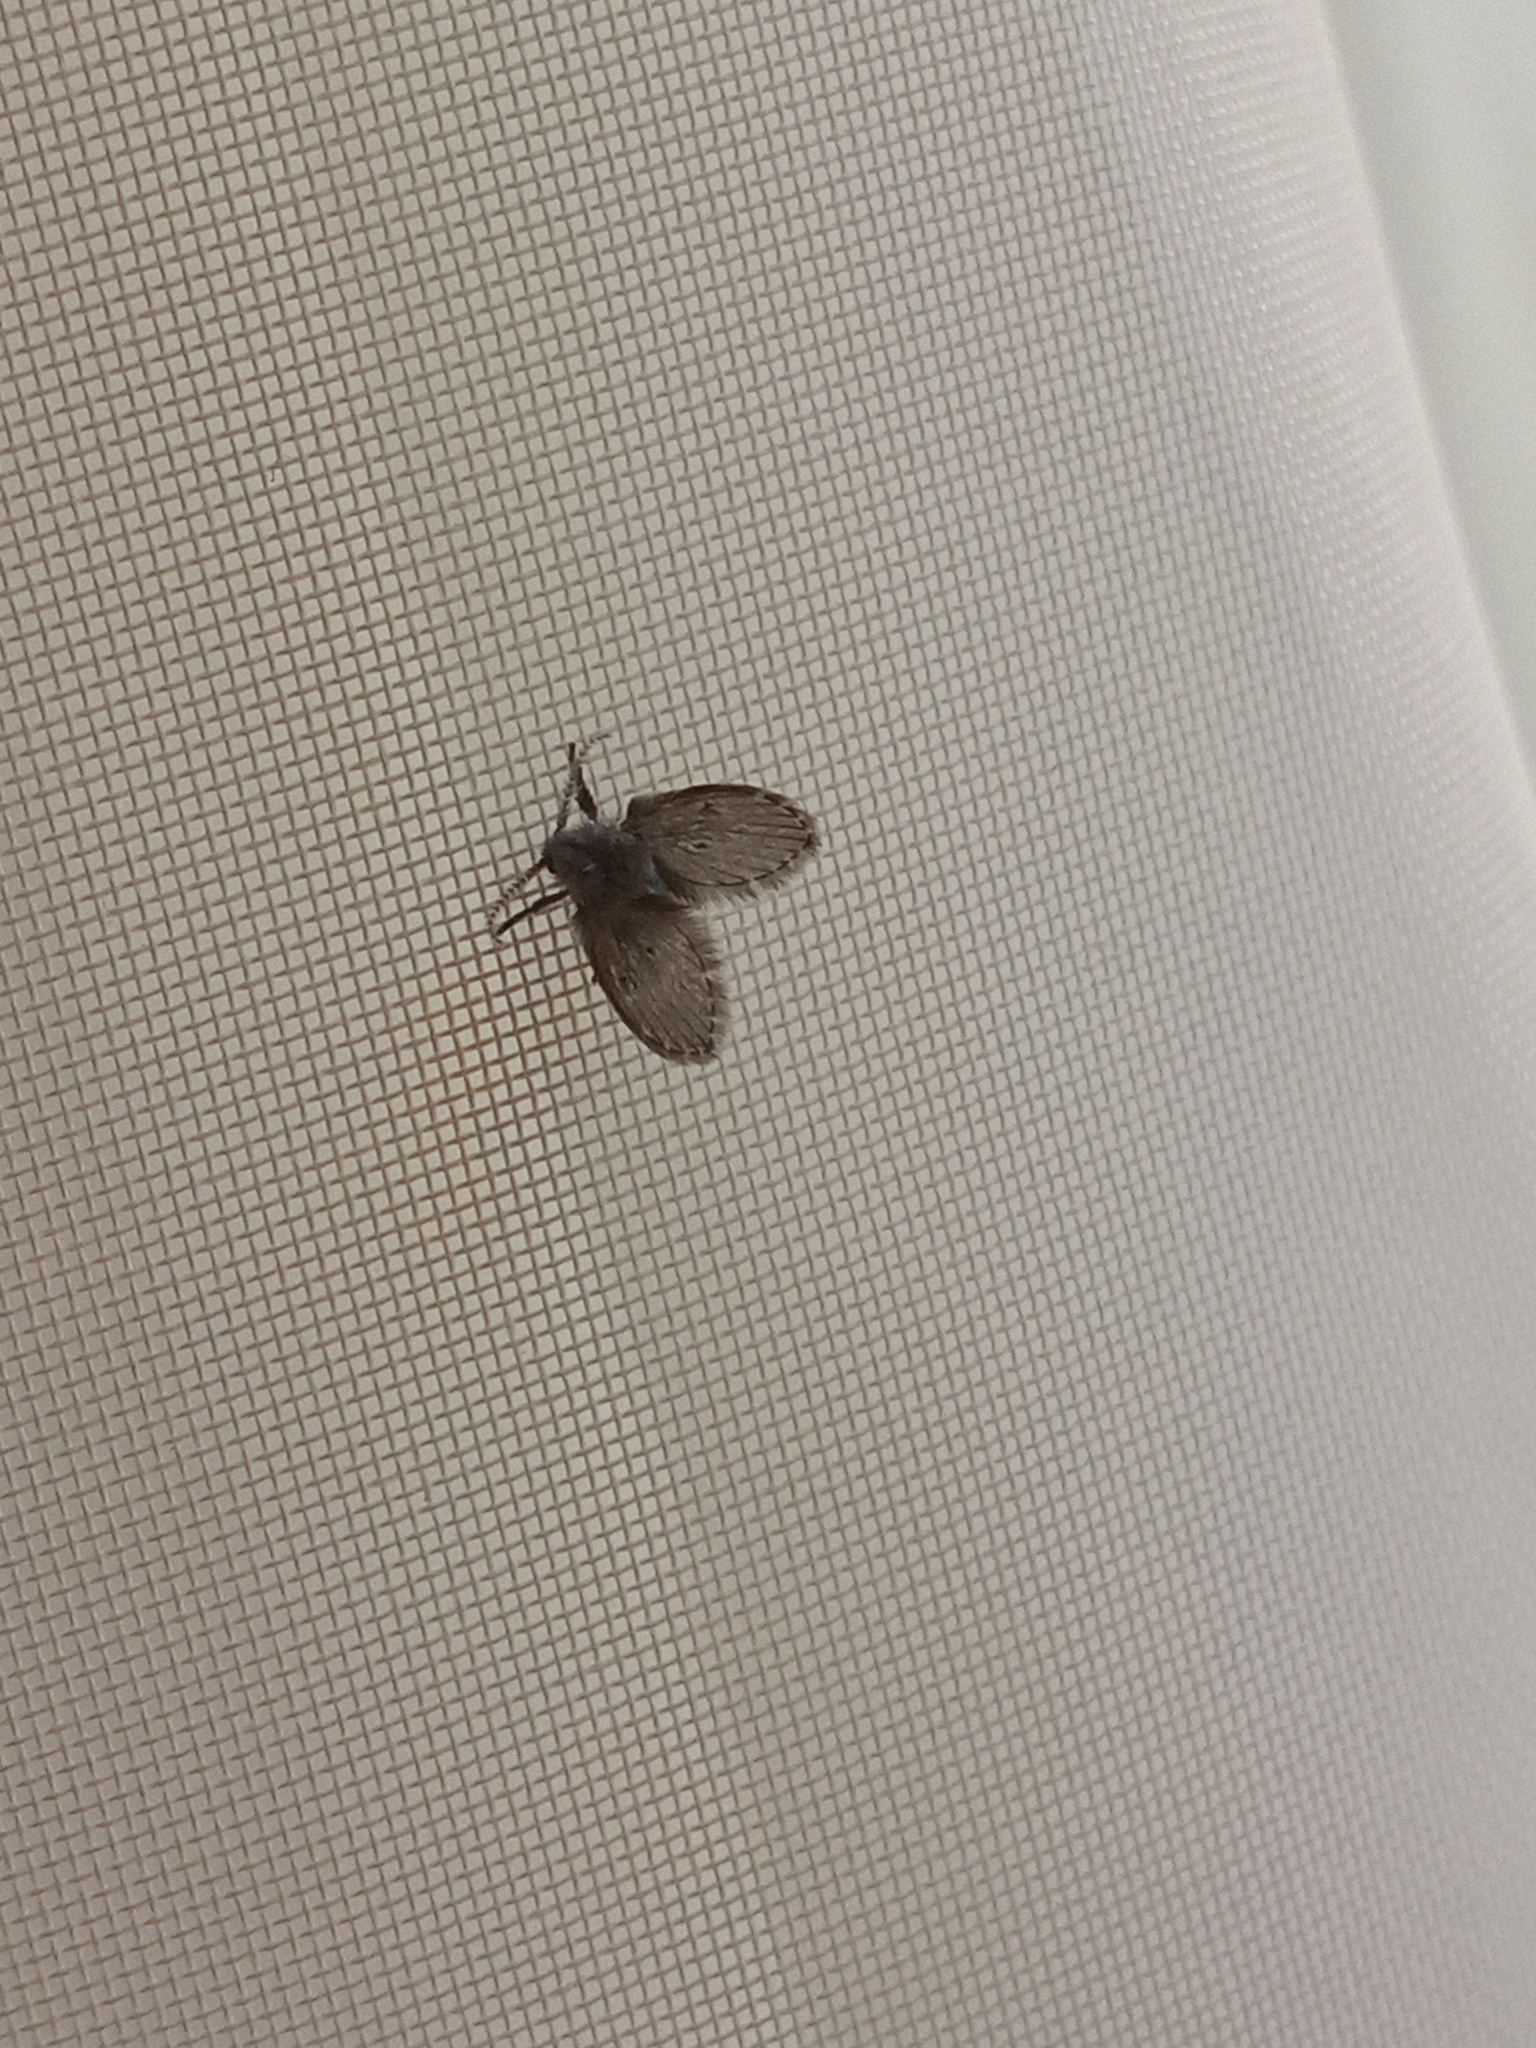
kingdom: Animalia
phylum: Arthropoda
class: Insecta
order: Diptera
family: Psychodidae
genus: Clogmia
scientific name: Clogmia albipunctatus
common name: White-spotted moth fly
